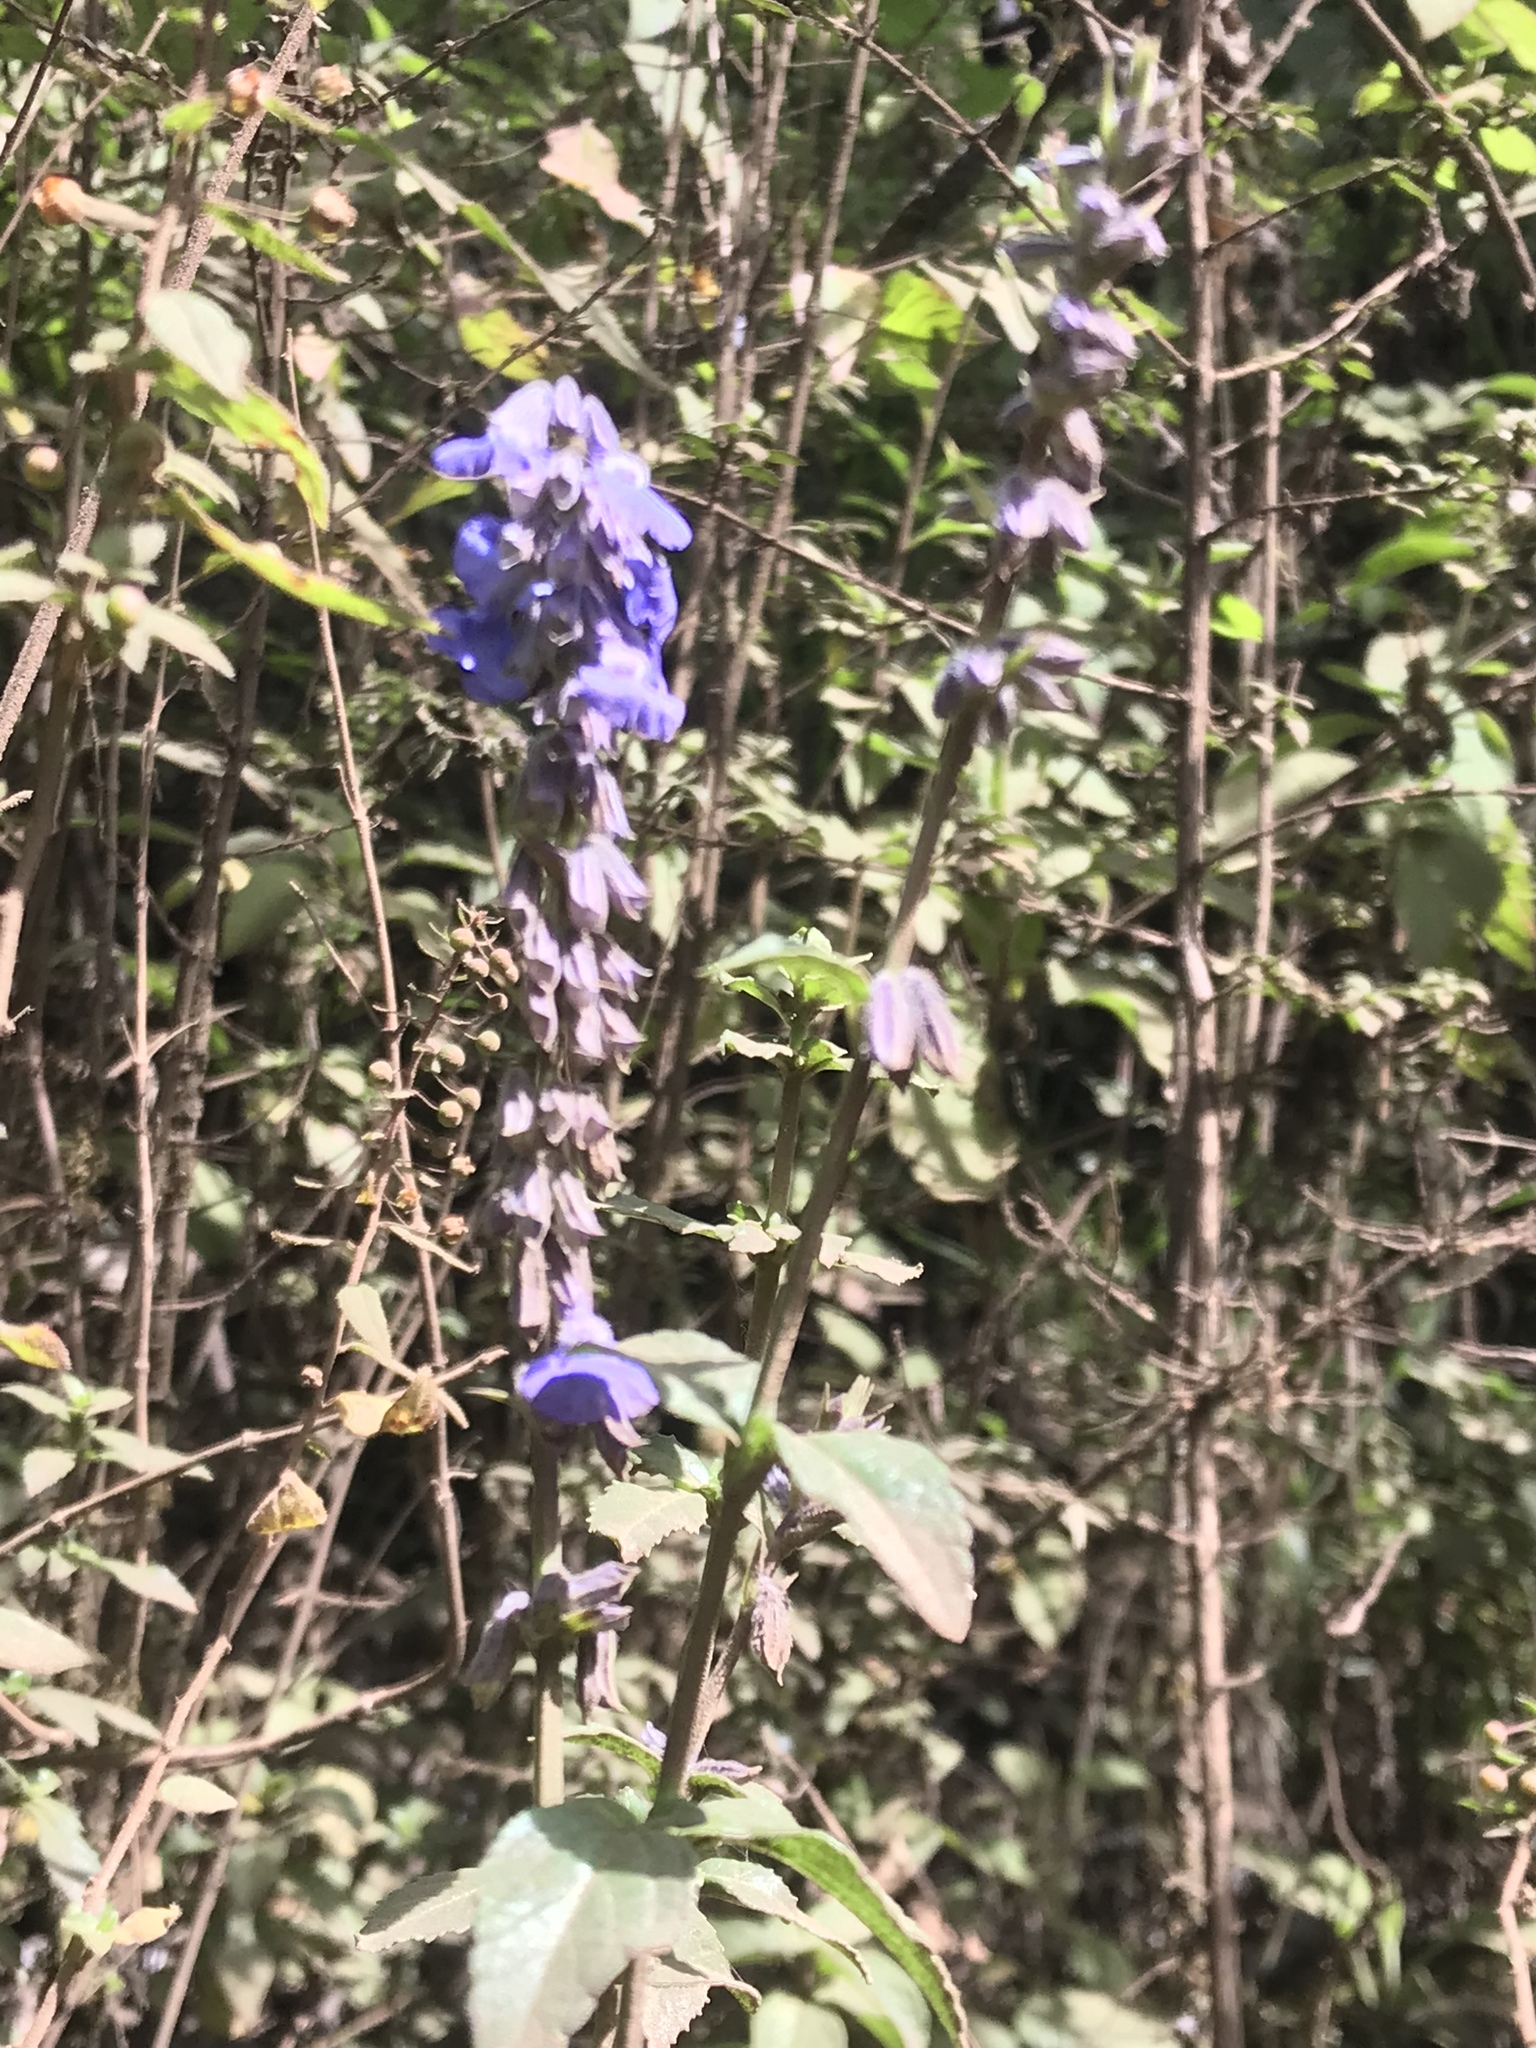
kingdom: Plantae
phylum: Tracheophyta
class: Magnoliopsida
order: Lamiales
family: Lamiaceae
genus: Salvia
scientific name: Salvia helianthemifolia
